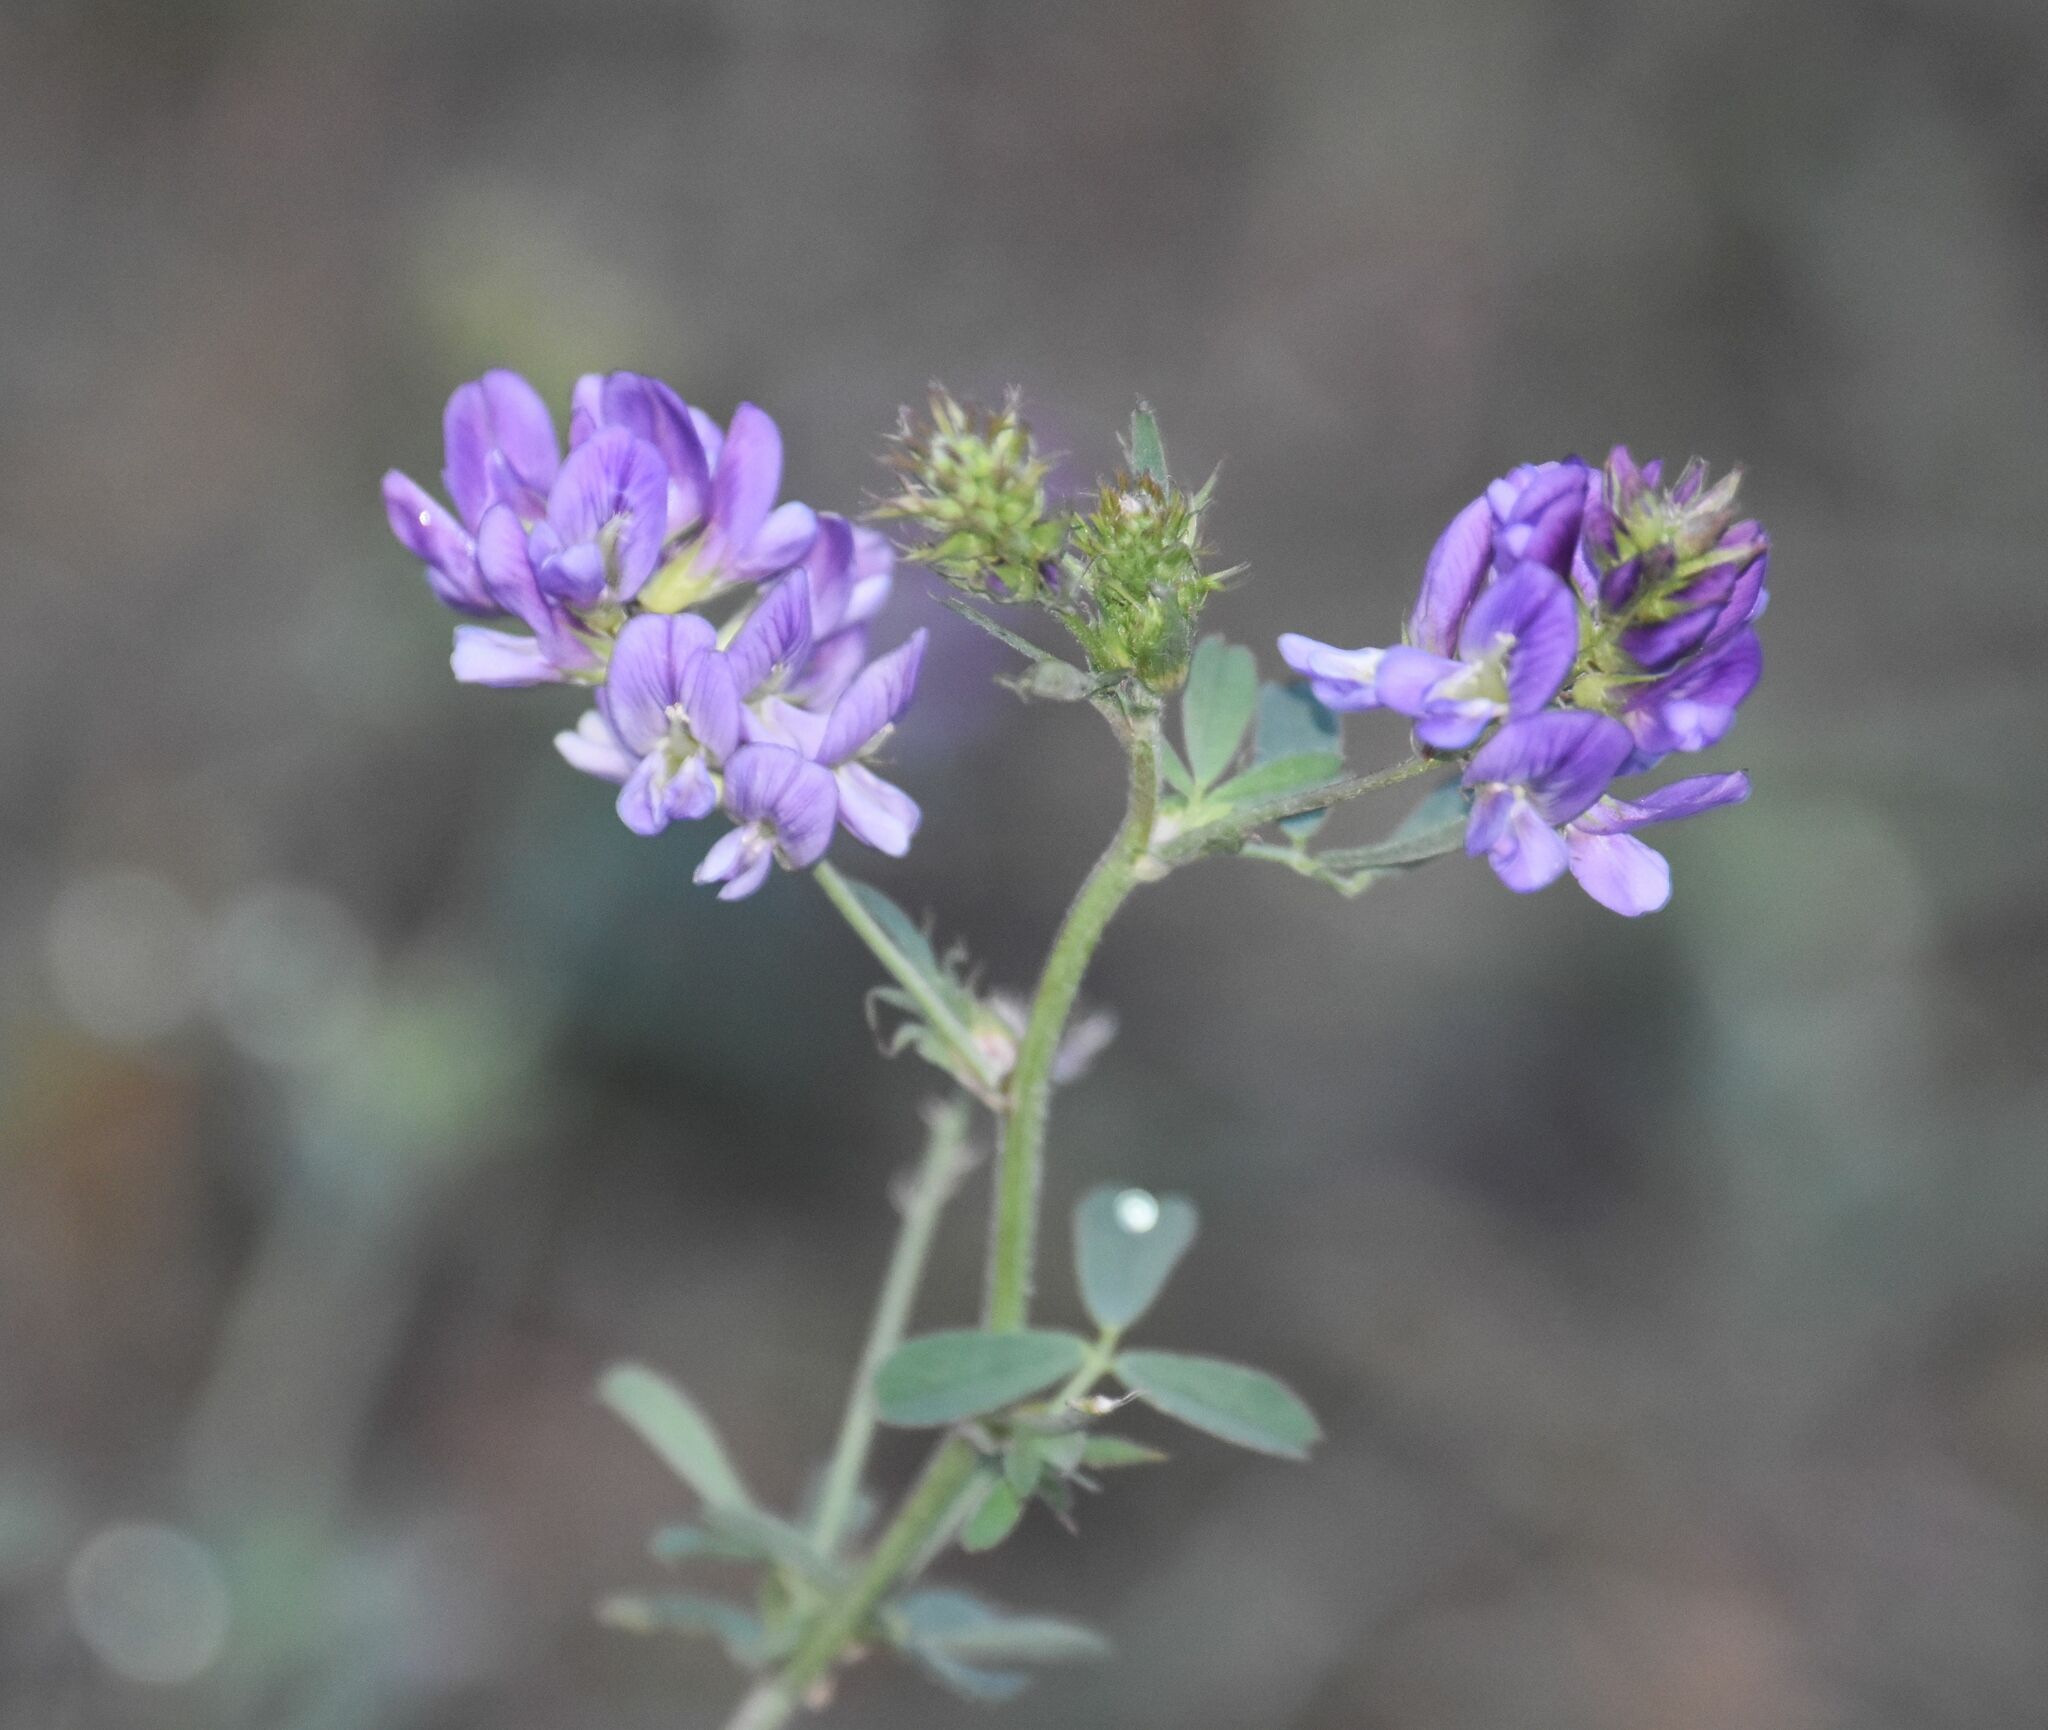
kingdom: Plantae
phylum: Tracheophyta
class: Magnoliopsida
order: Fabales
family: Fabaceae
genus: Medicago
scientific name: Medicago sativa
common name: Alfalfa
